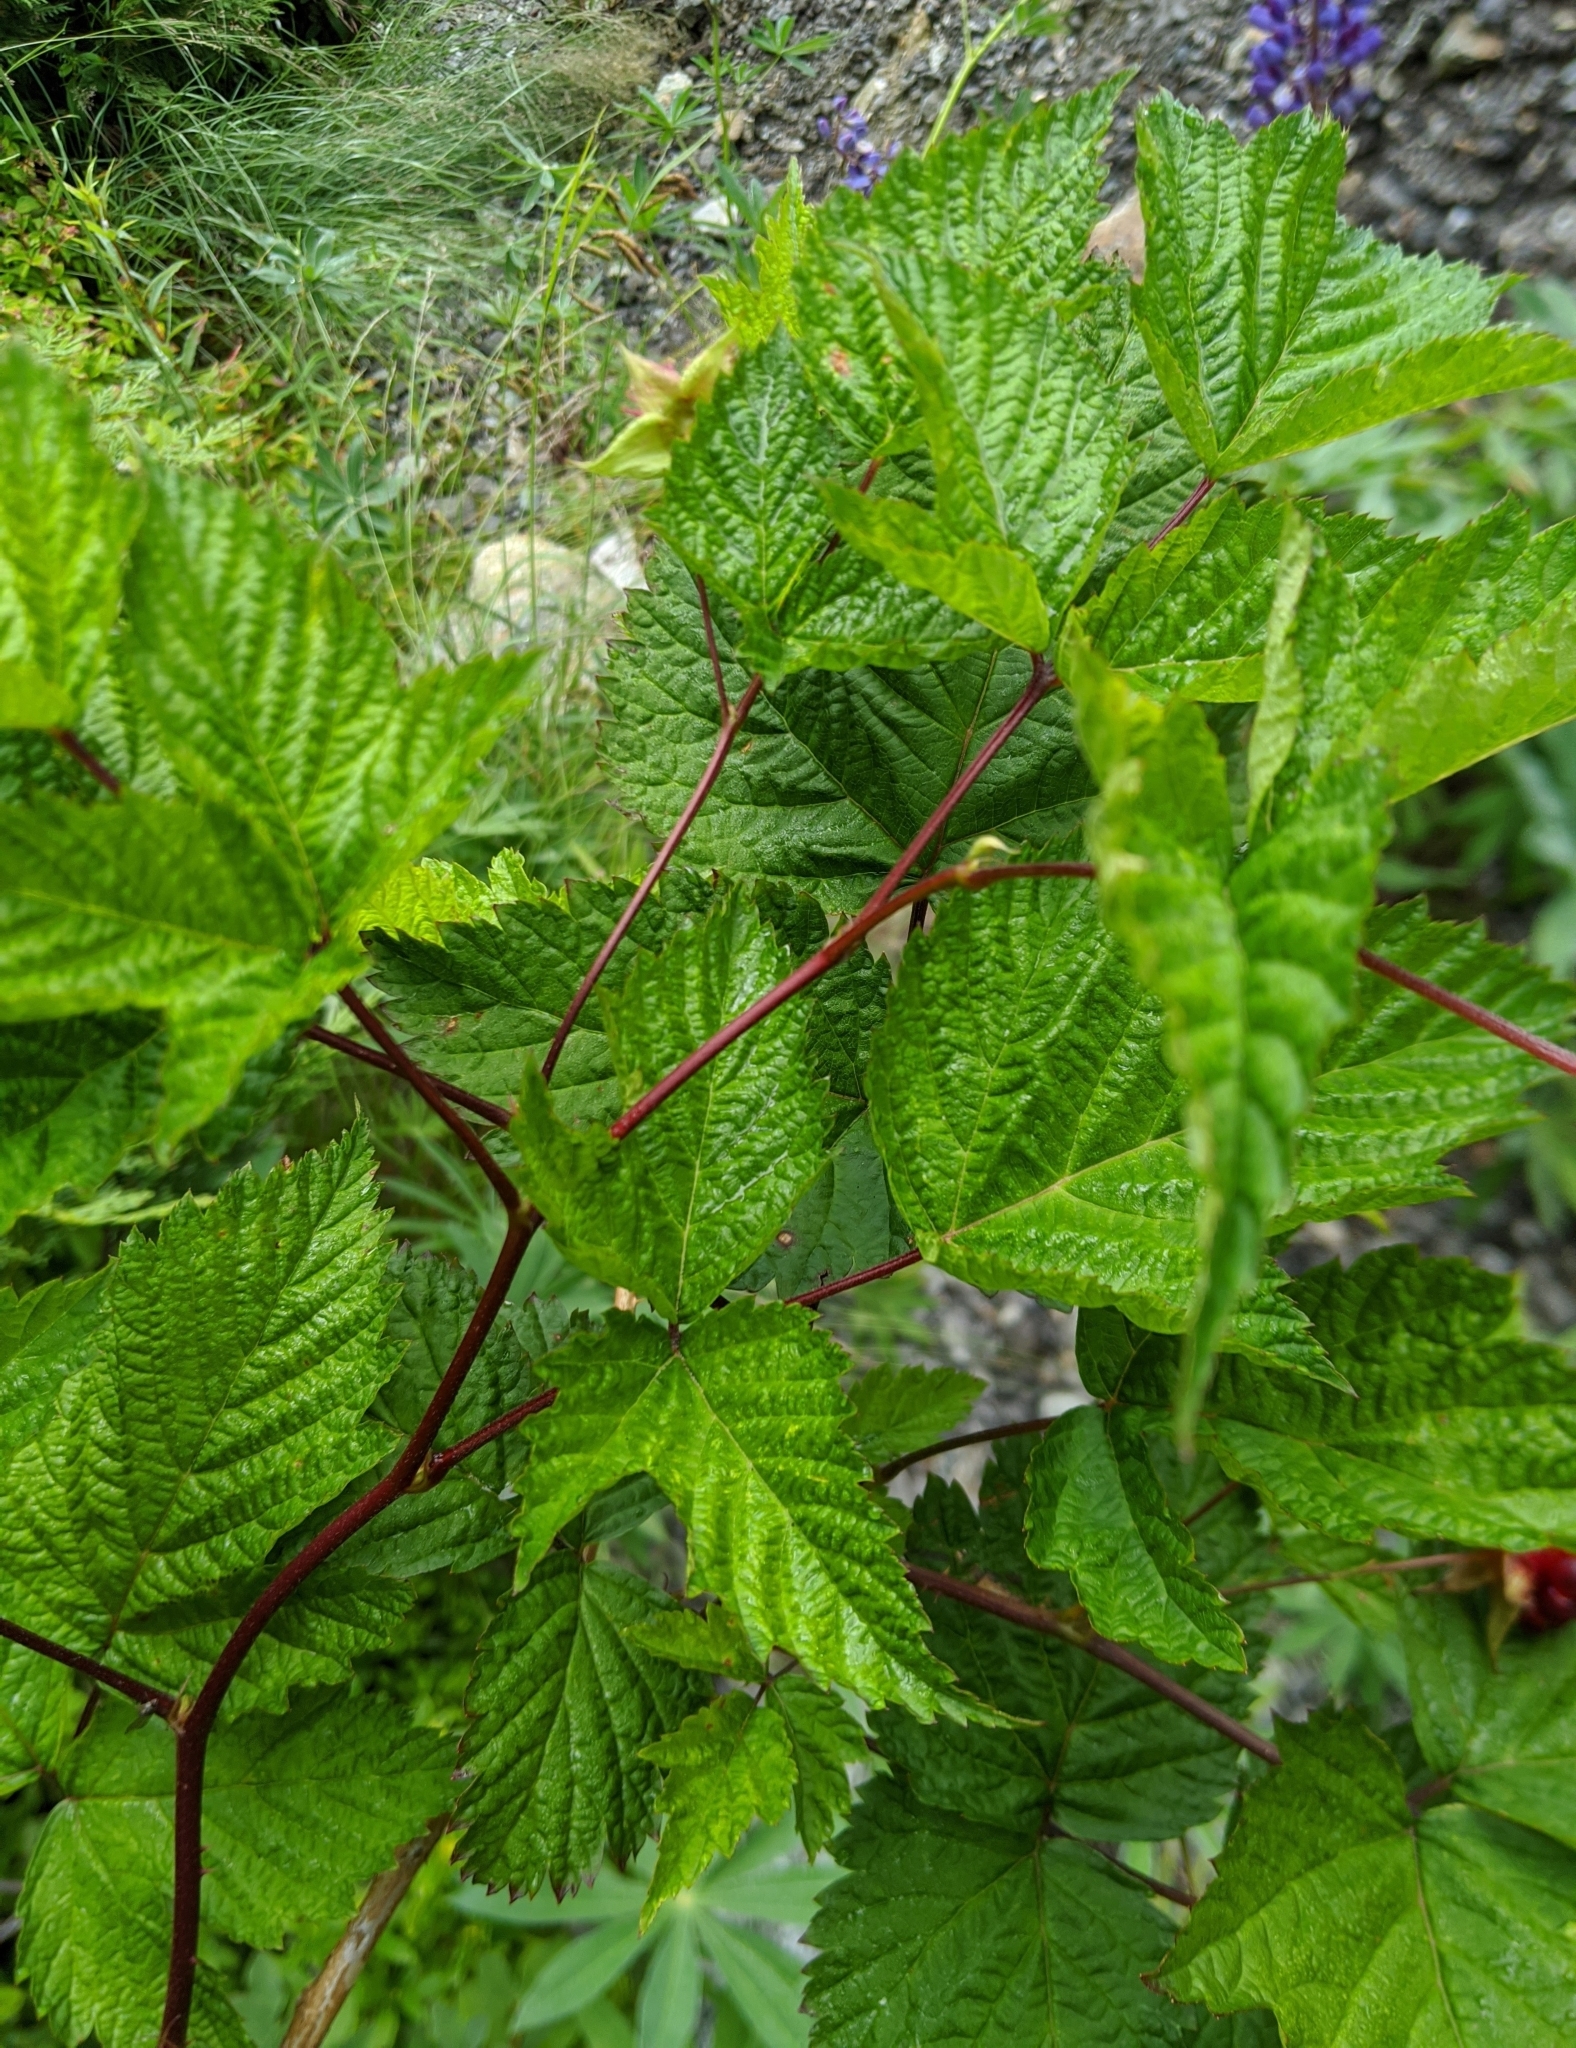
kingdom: Plantae
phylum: Tracheophyta
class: Magnoliopsida
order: Rosales
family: Rosaceae
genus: Rubus
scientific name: Rubus spectabilis
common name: Salmonberry
